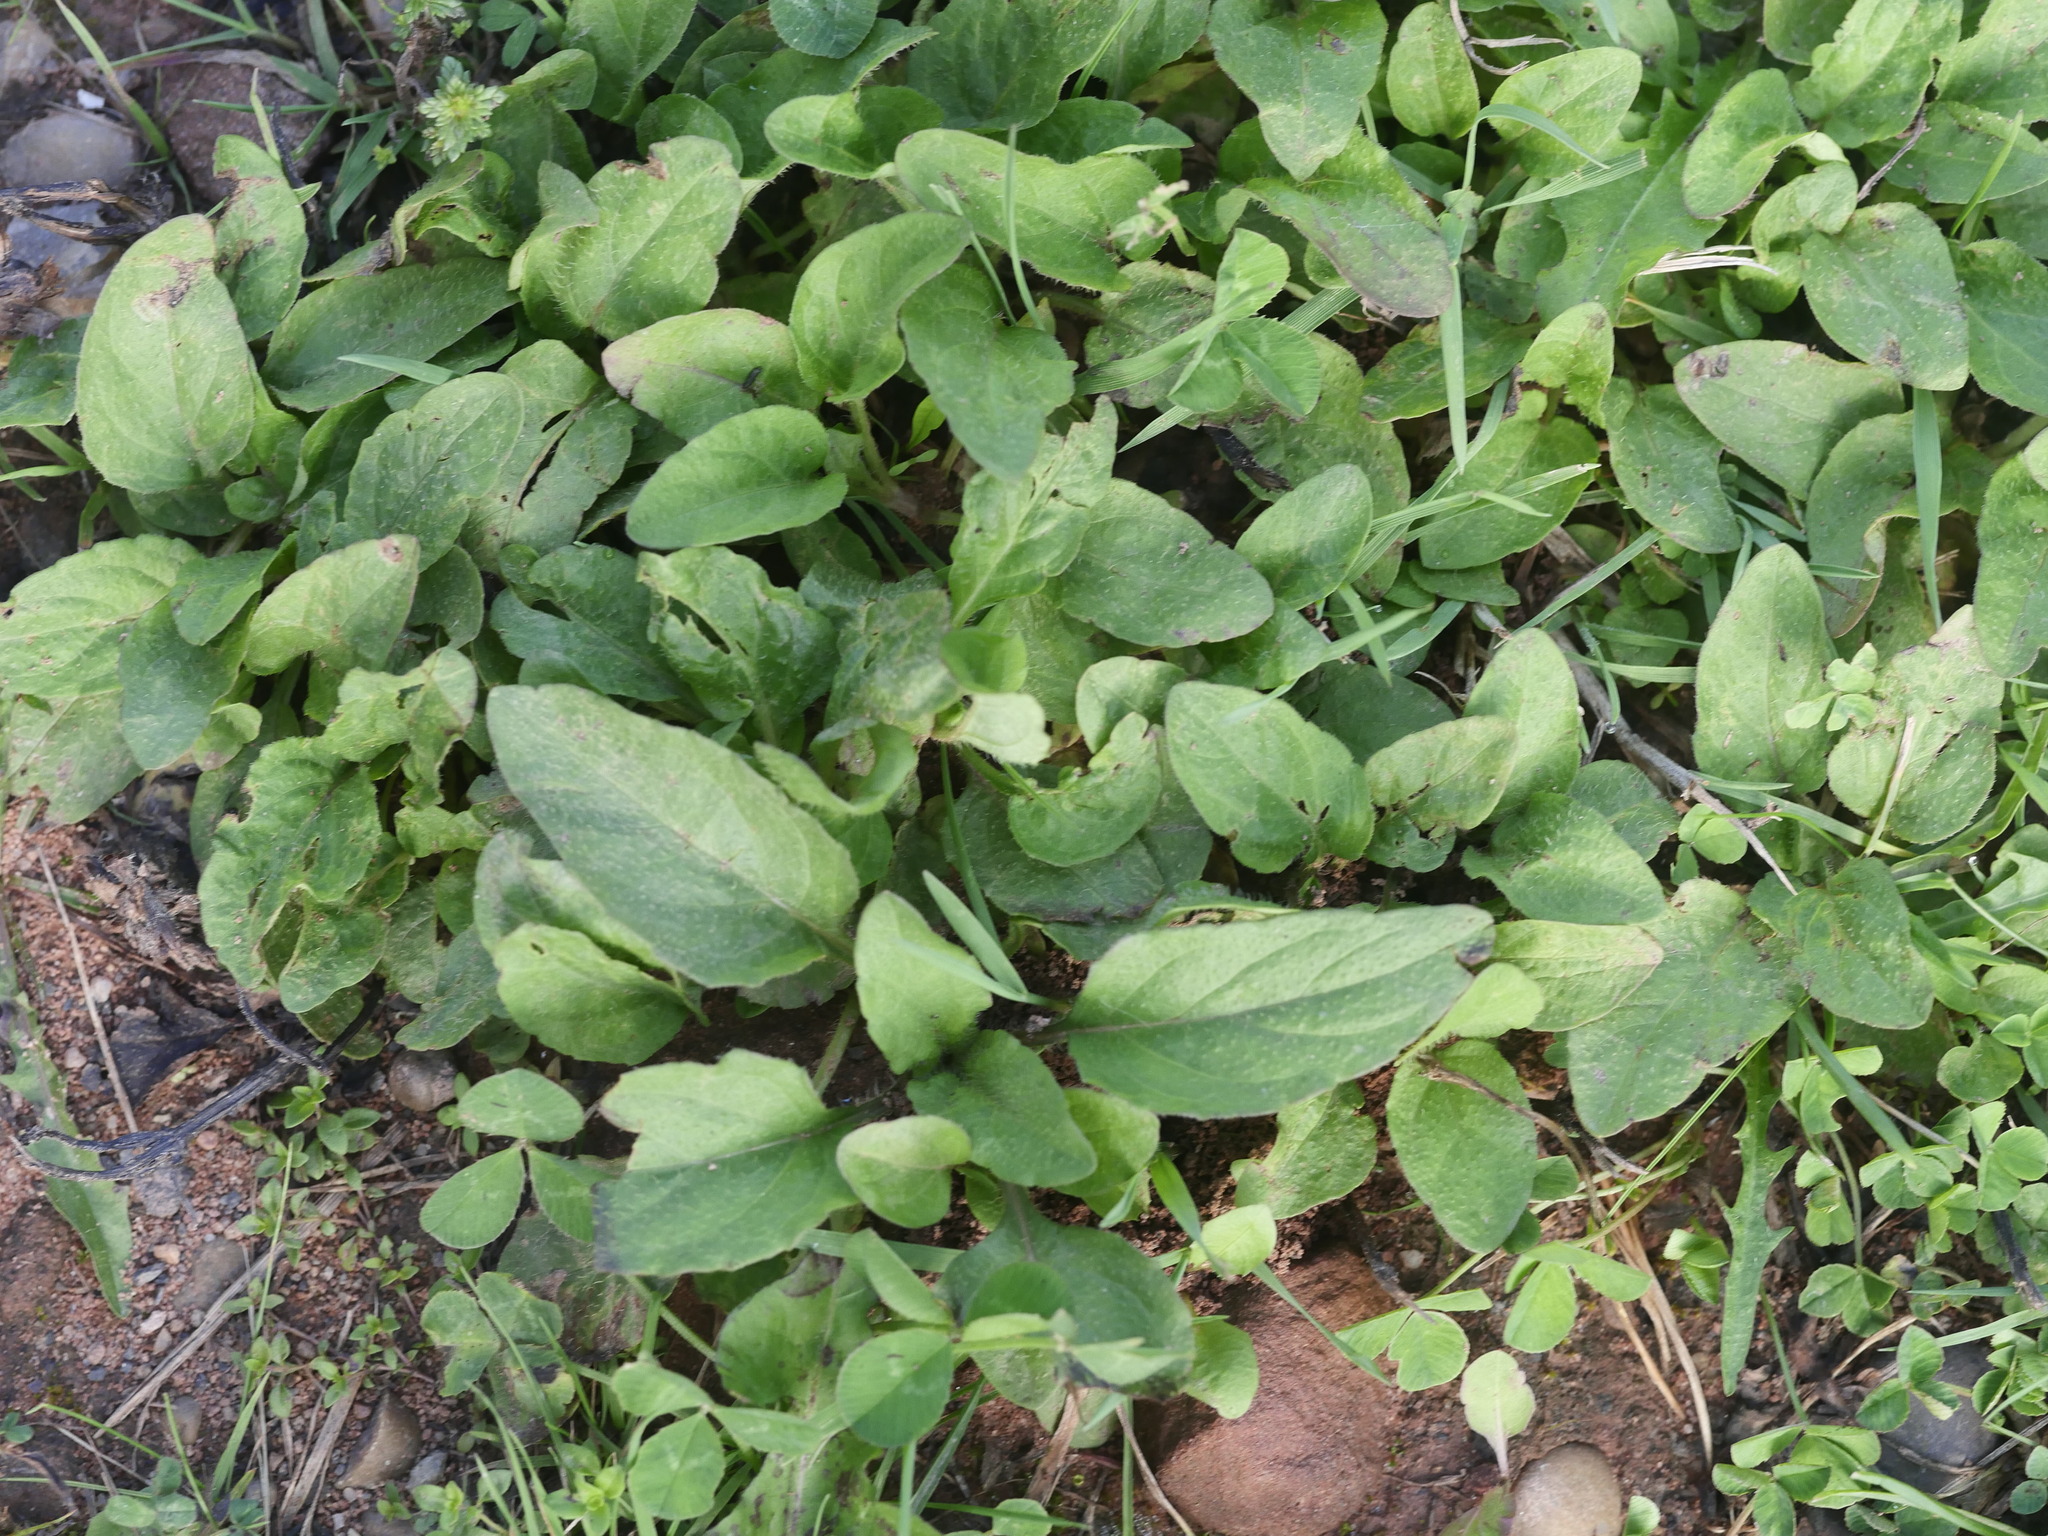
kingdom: Plantae
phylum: Tracheophyta
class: Magnoliopsida
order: Lamiales
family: Lamiaceae
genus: Prunella
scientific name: Prunella vulgaris
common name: Heal-all
